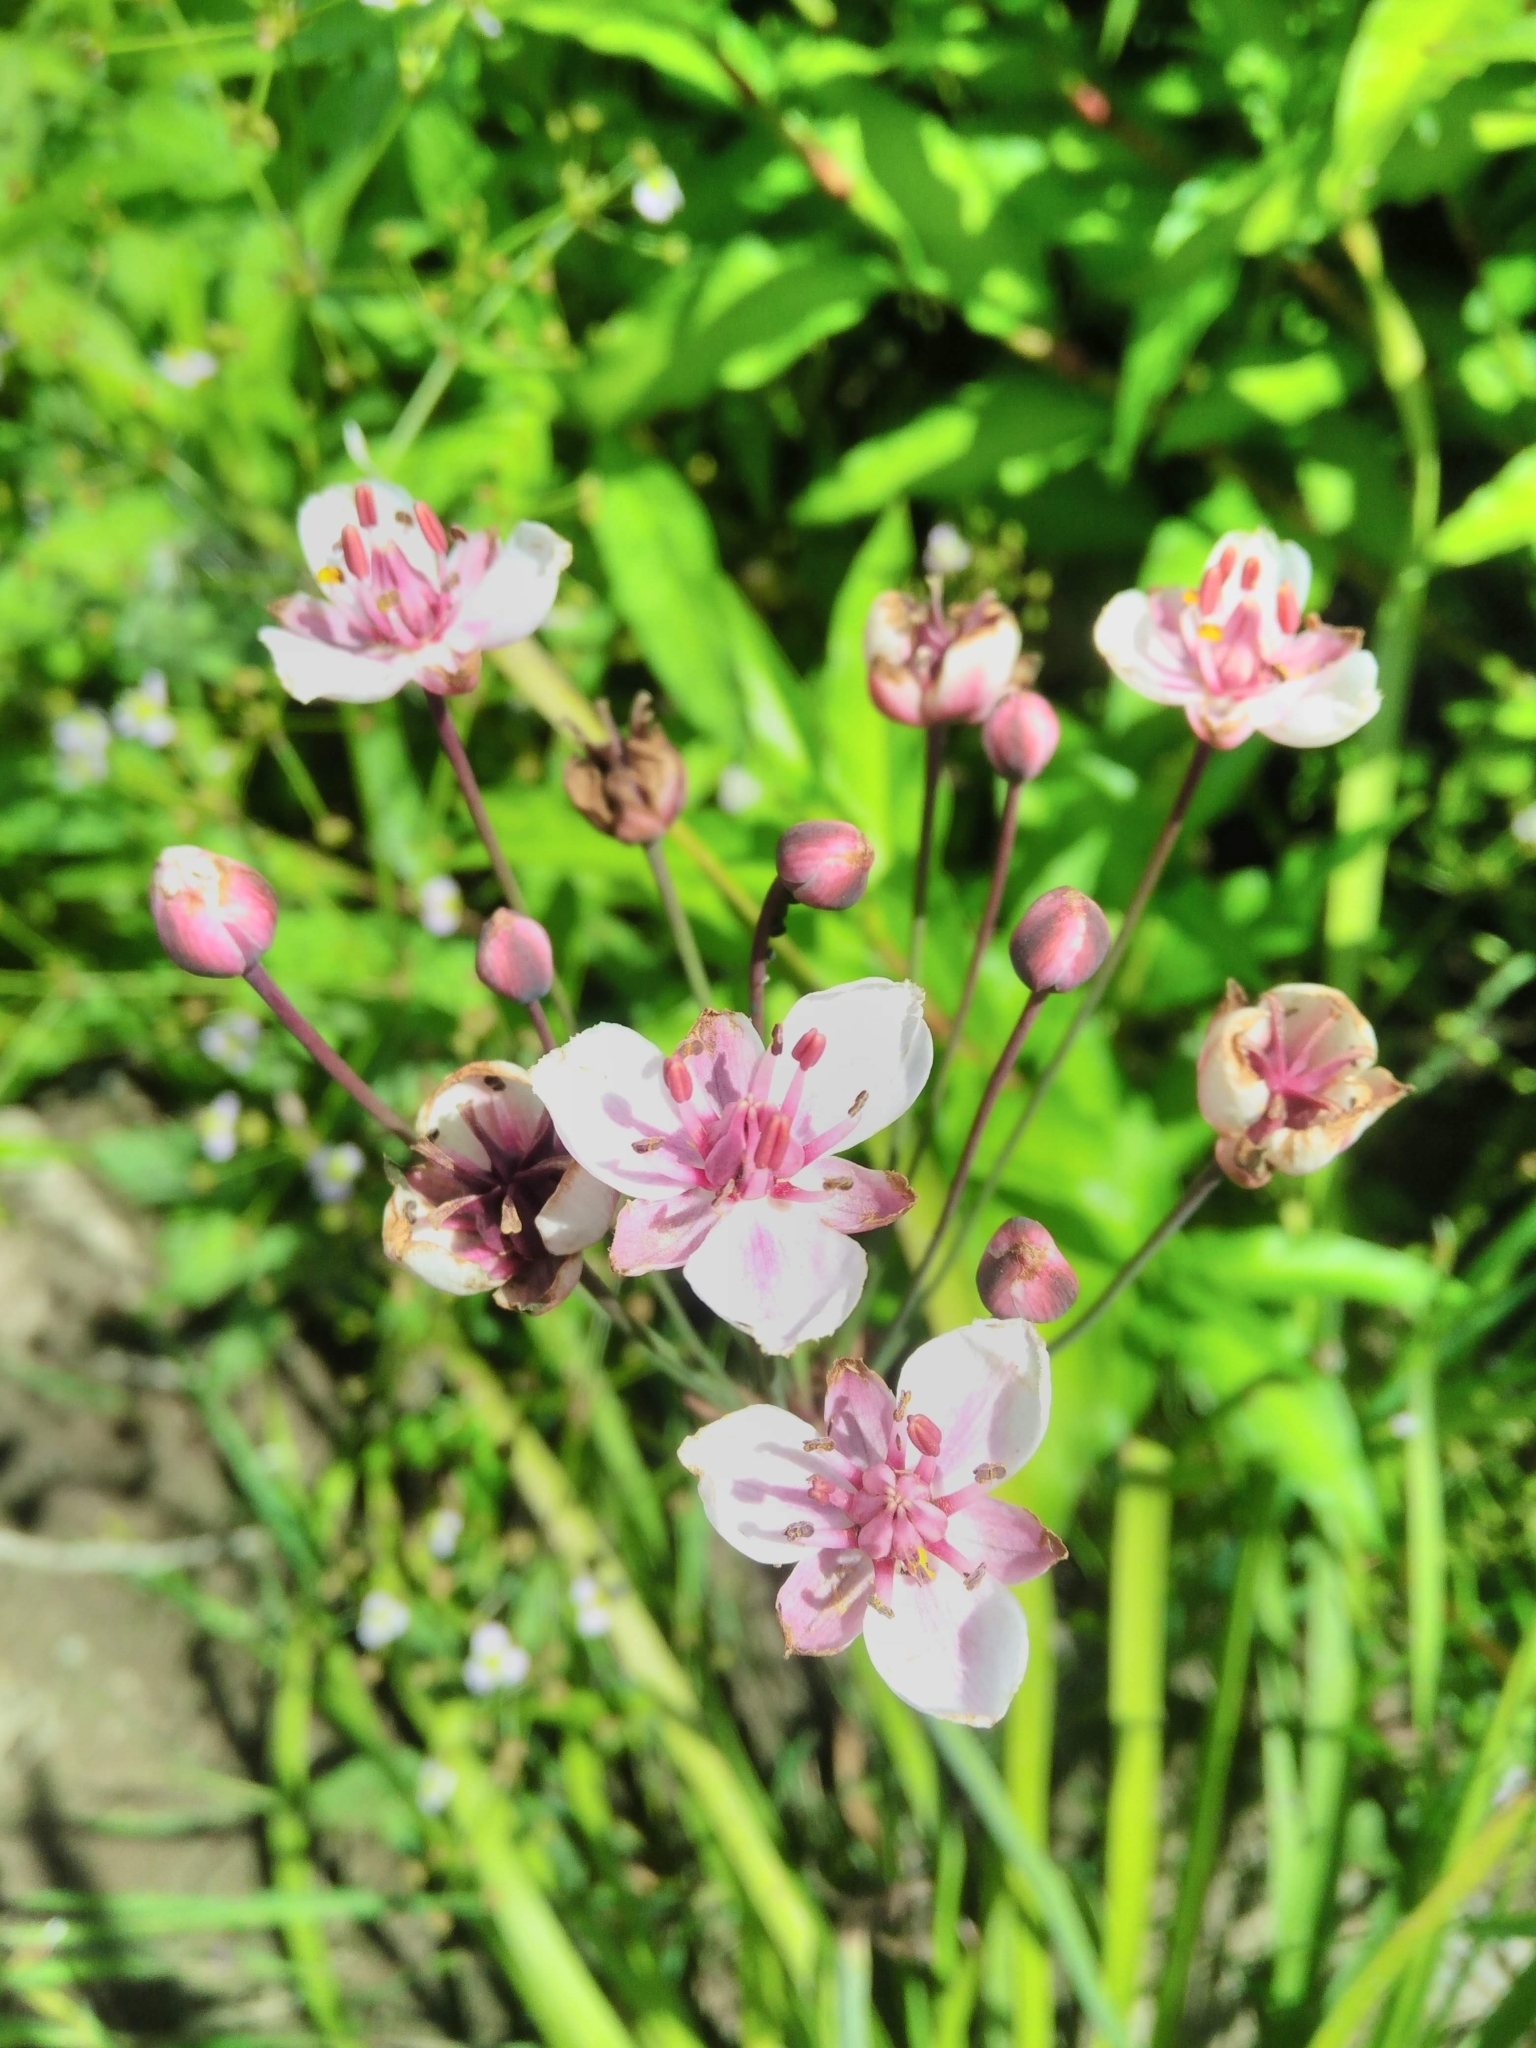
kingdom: Plantae
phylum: Tracheophyta
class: Liliopsida
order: Alismatales
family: Butomaceae
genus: Butomus
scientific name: Butomus umbellatus
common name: Flowering-rush
